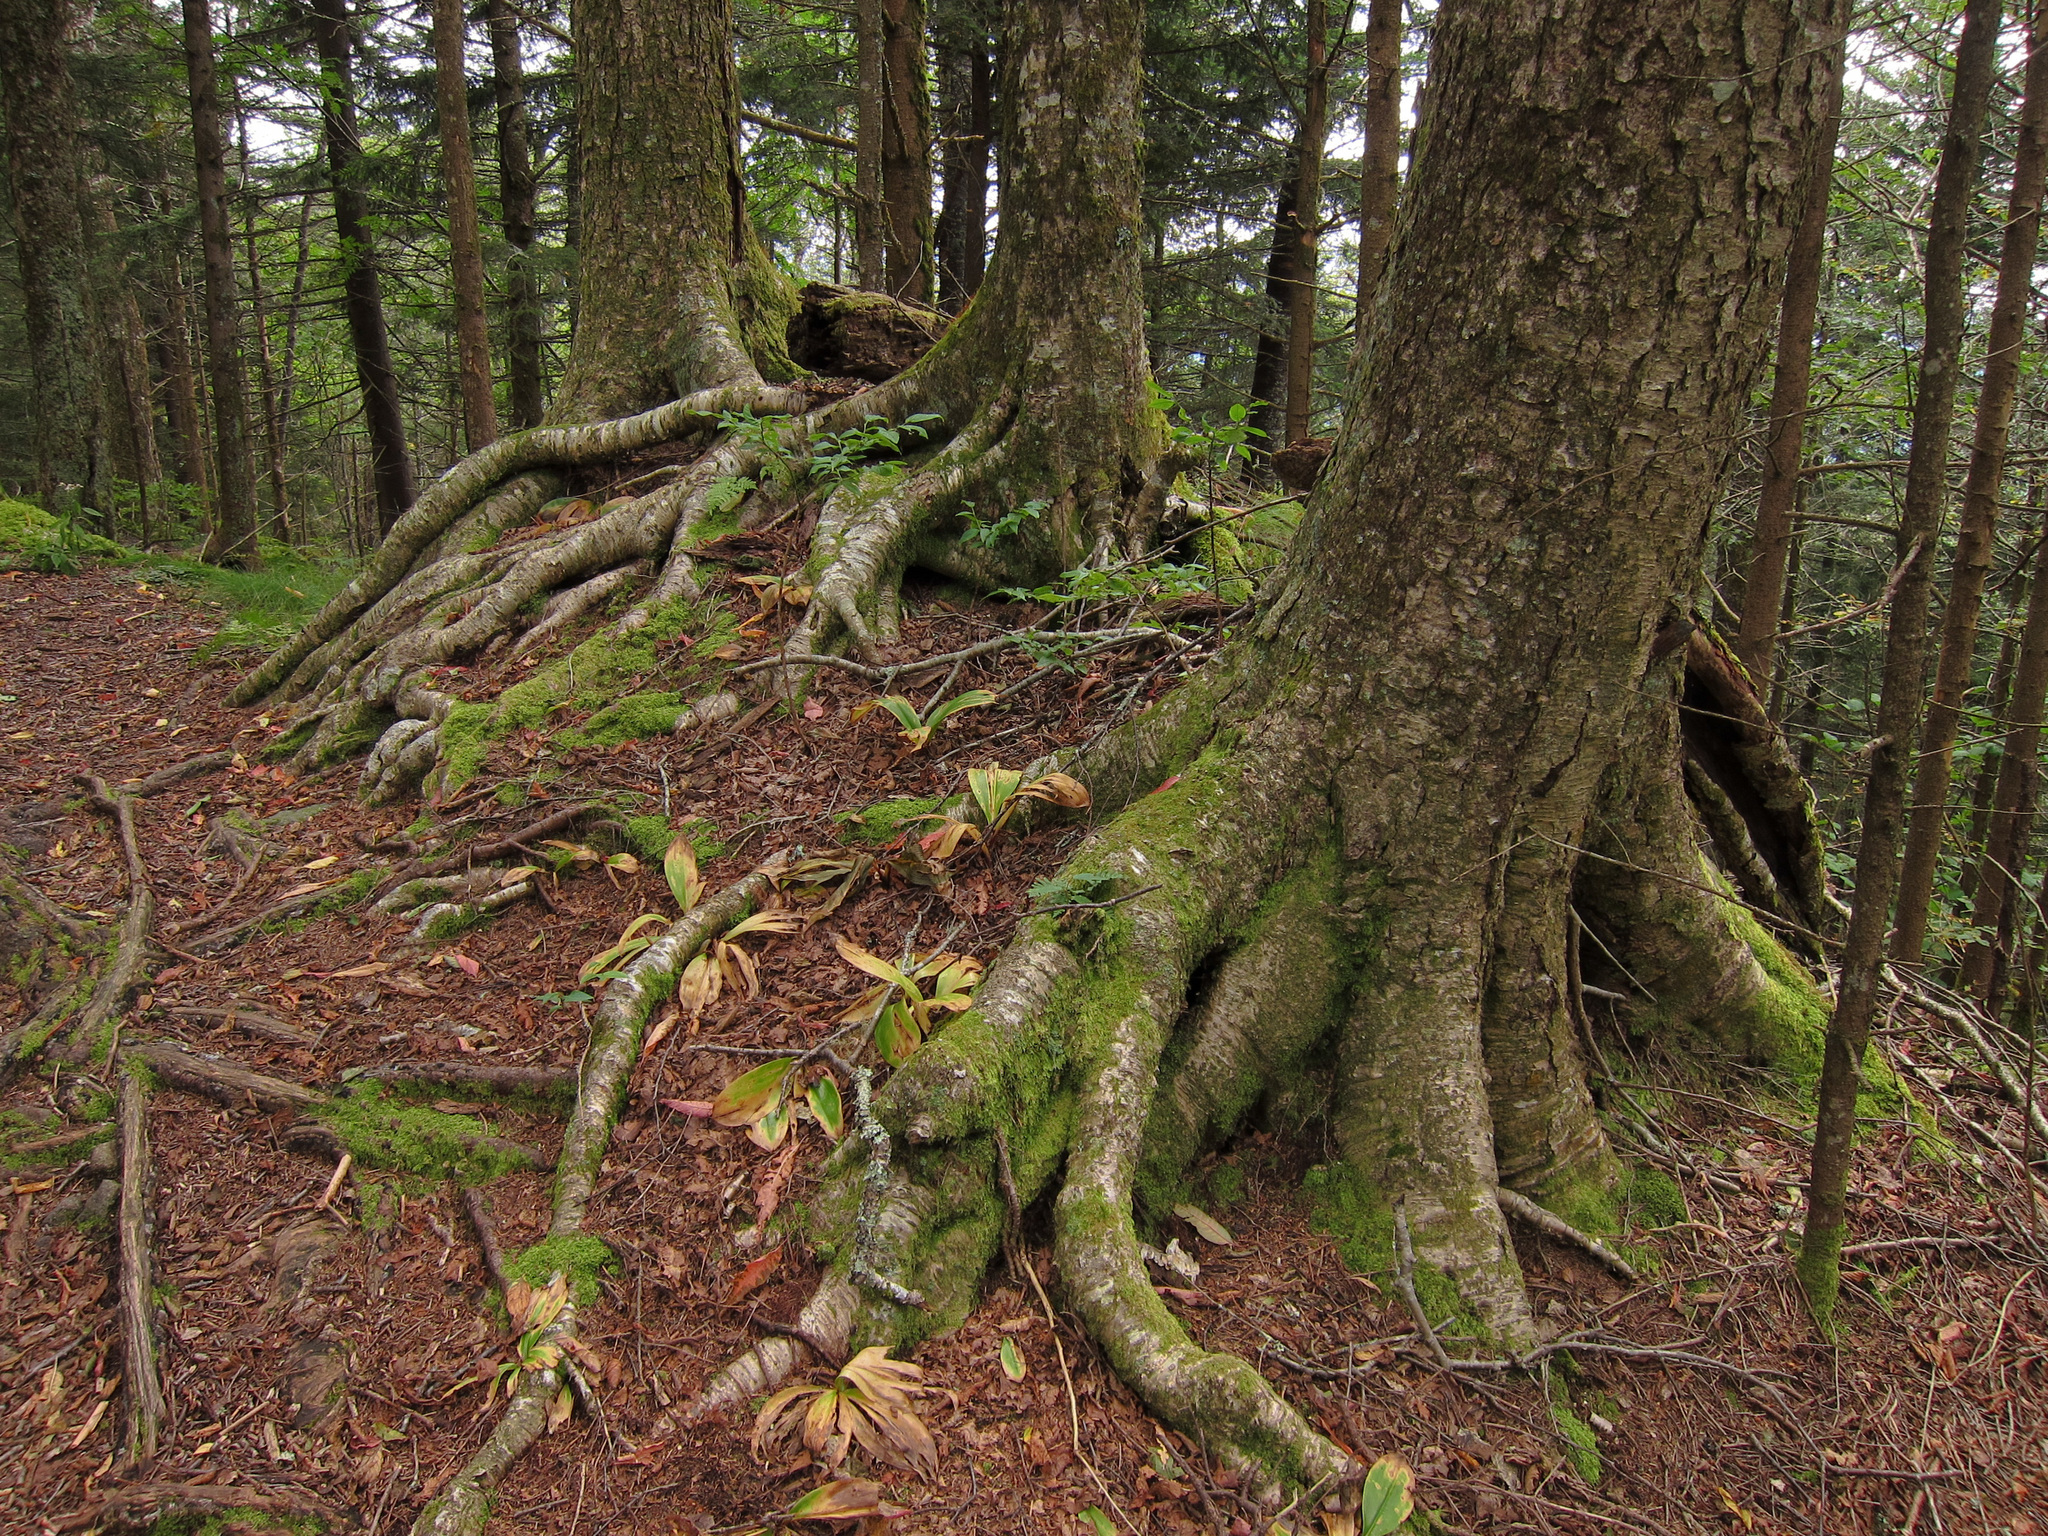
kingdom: Plantae
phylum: Tracheophyta
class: Magnoliopsida
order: Fagales
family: Betulaceae
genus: Betula
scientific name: Betula alleghaniensis
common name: Yellow birch
